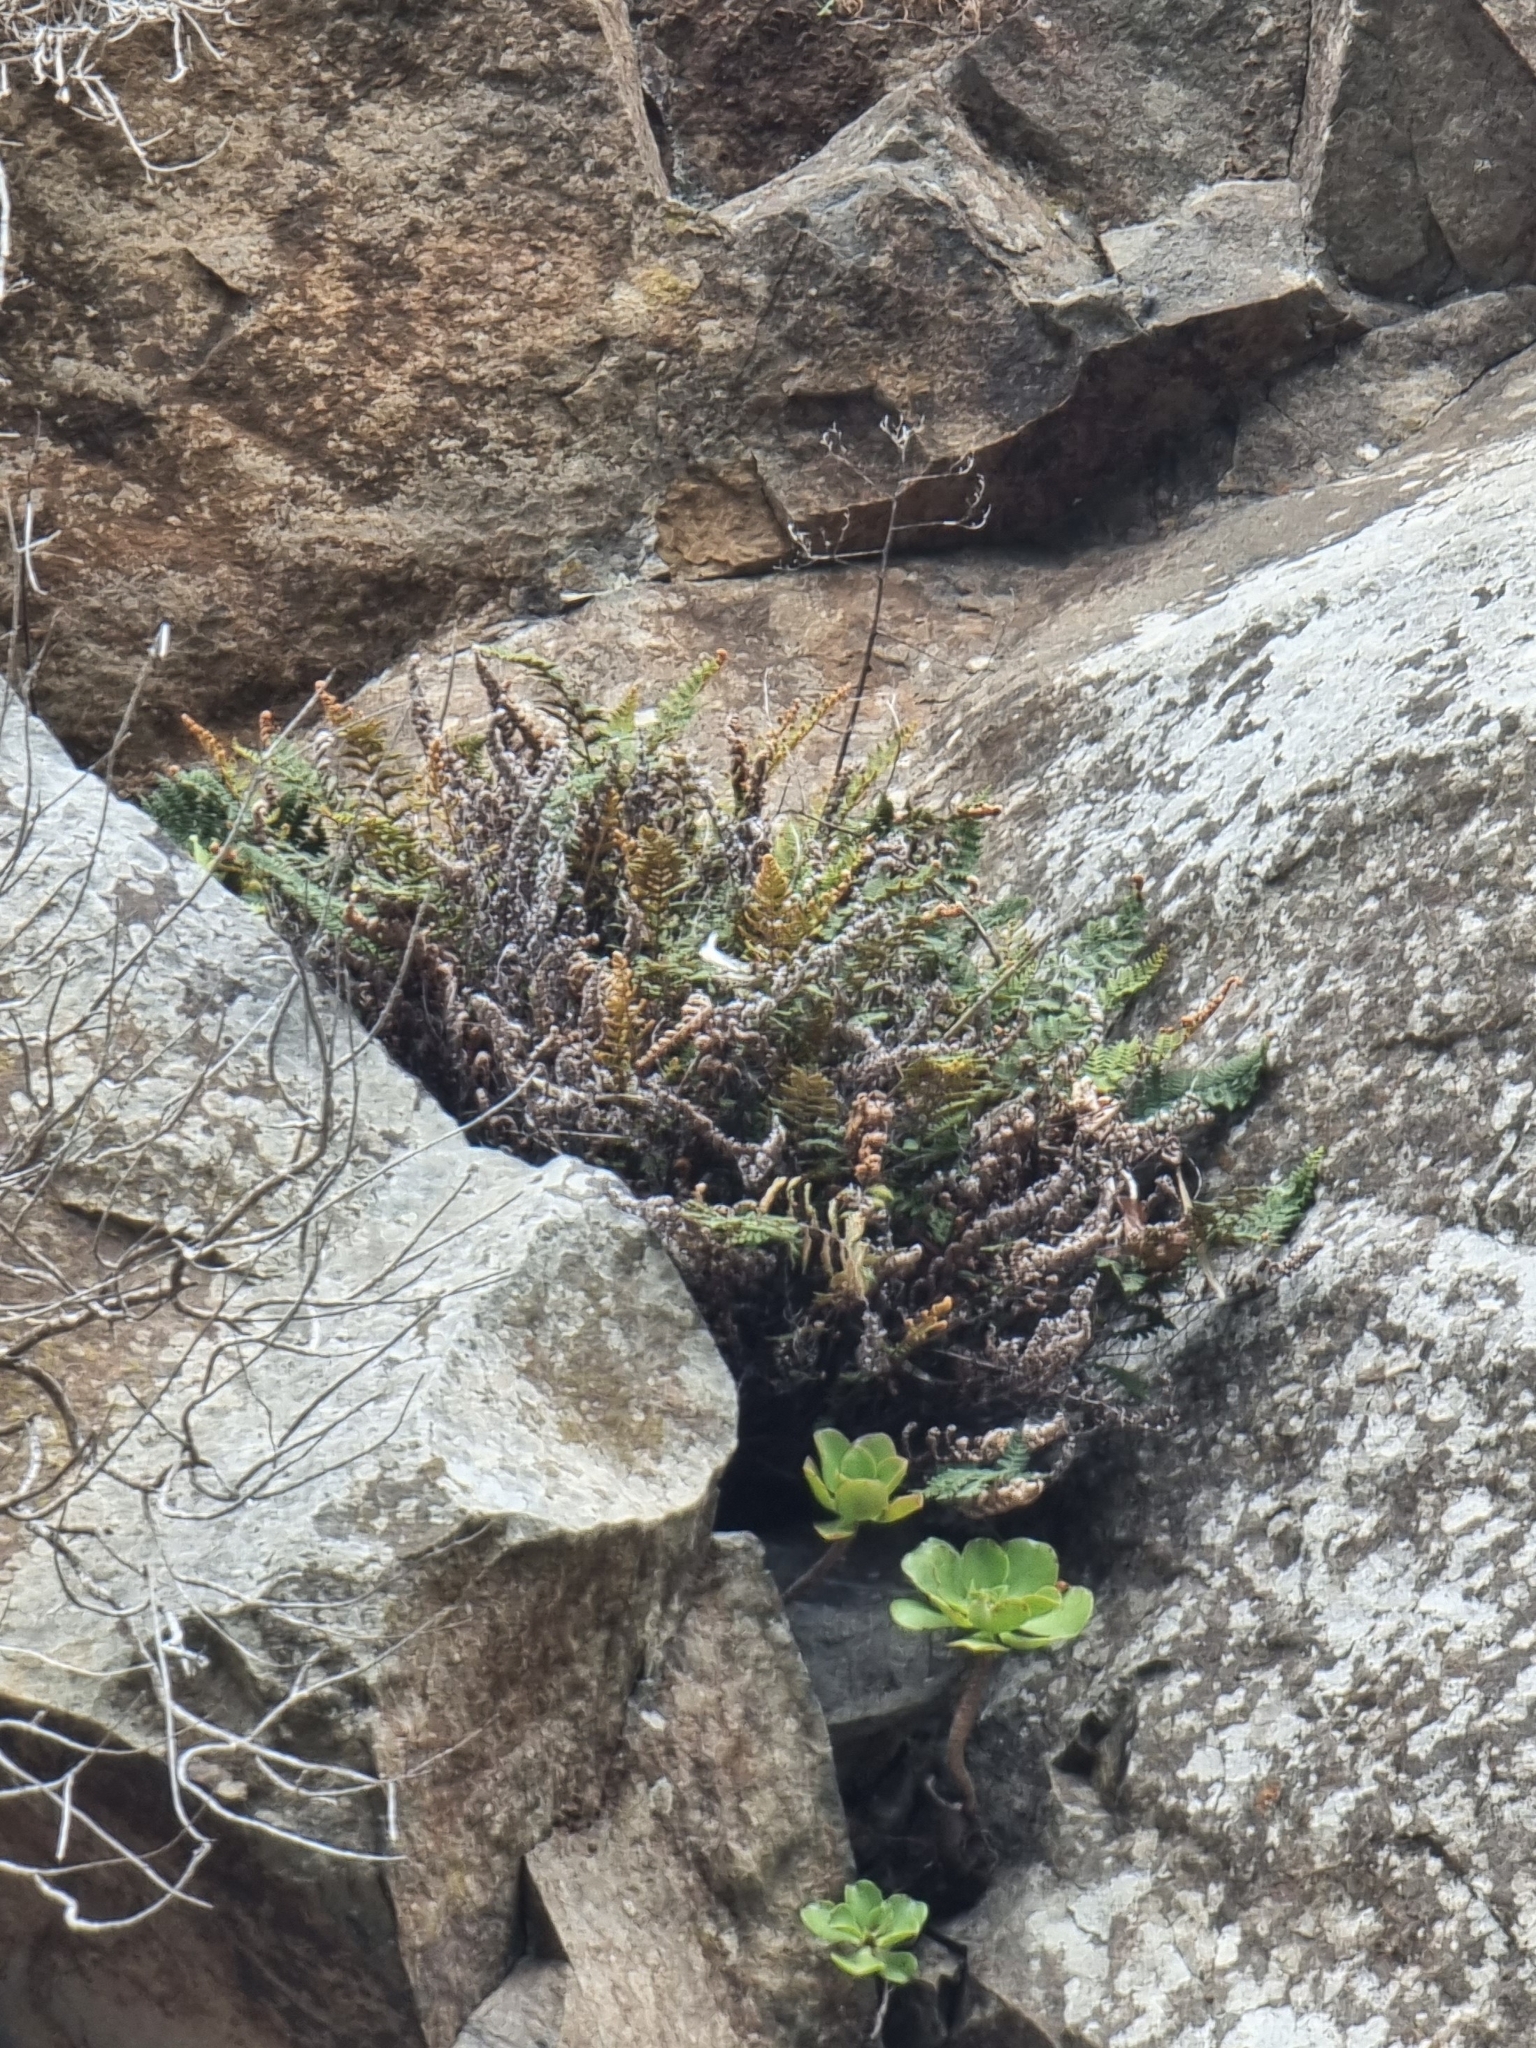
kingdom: Plantae
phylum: Tracheophyta
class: Polypodiopsida
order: Polypodiales
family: Pteridaceae
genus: Paragymnopteris
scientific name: Paragymnopteris marantae
